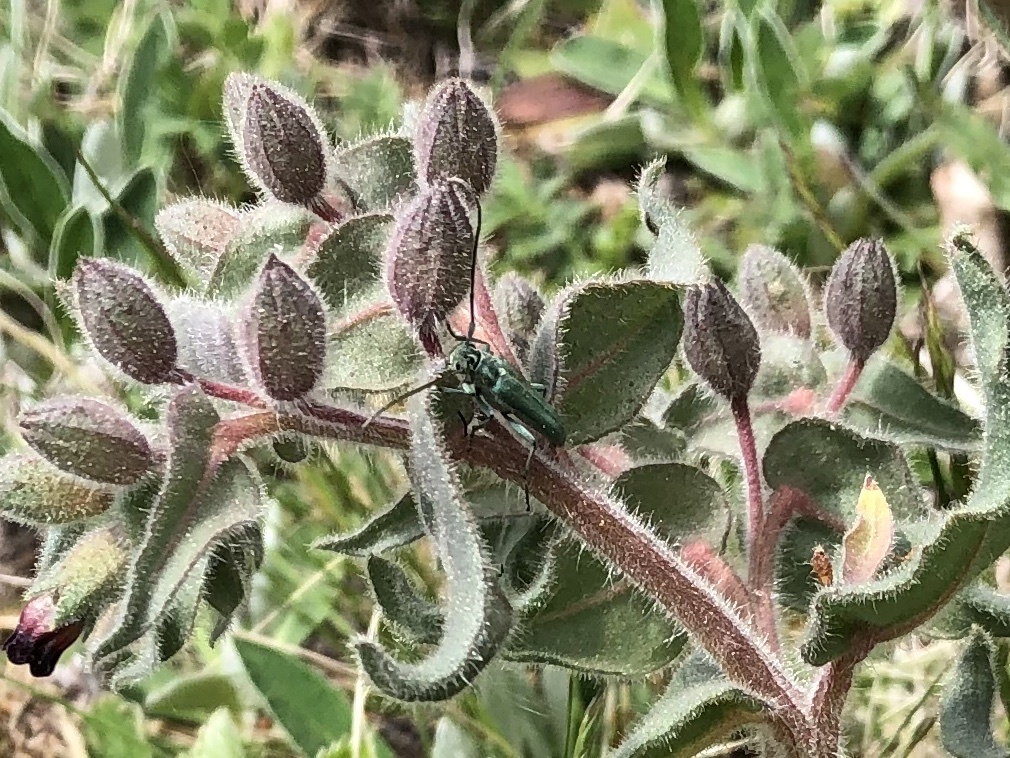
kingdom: Animalia
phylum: Arthropoda
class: Insecta
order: Coleoptera
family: Cerambycidae
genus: Phytoecia
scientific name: Phytoecia coerulescens
